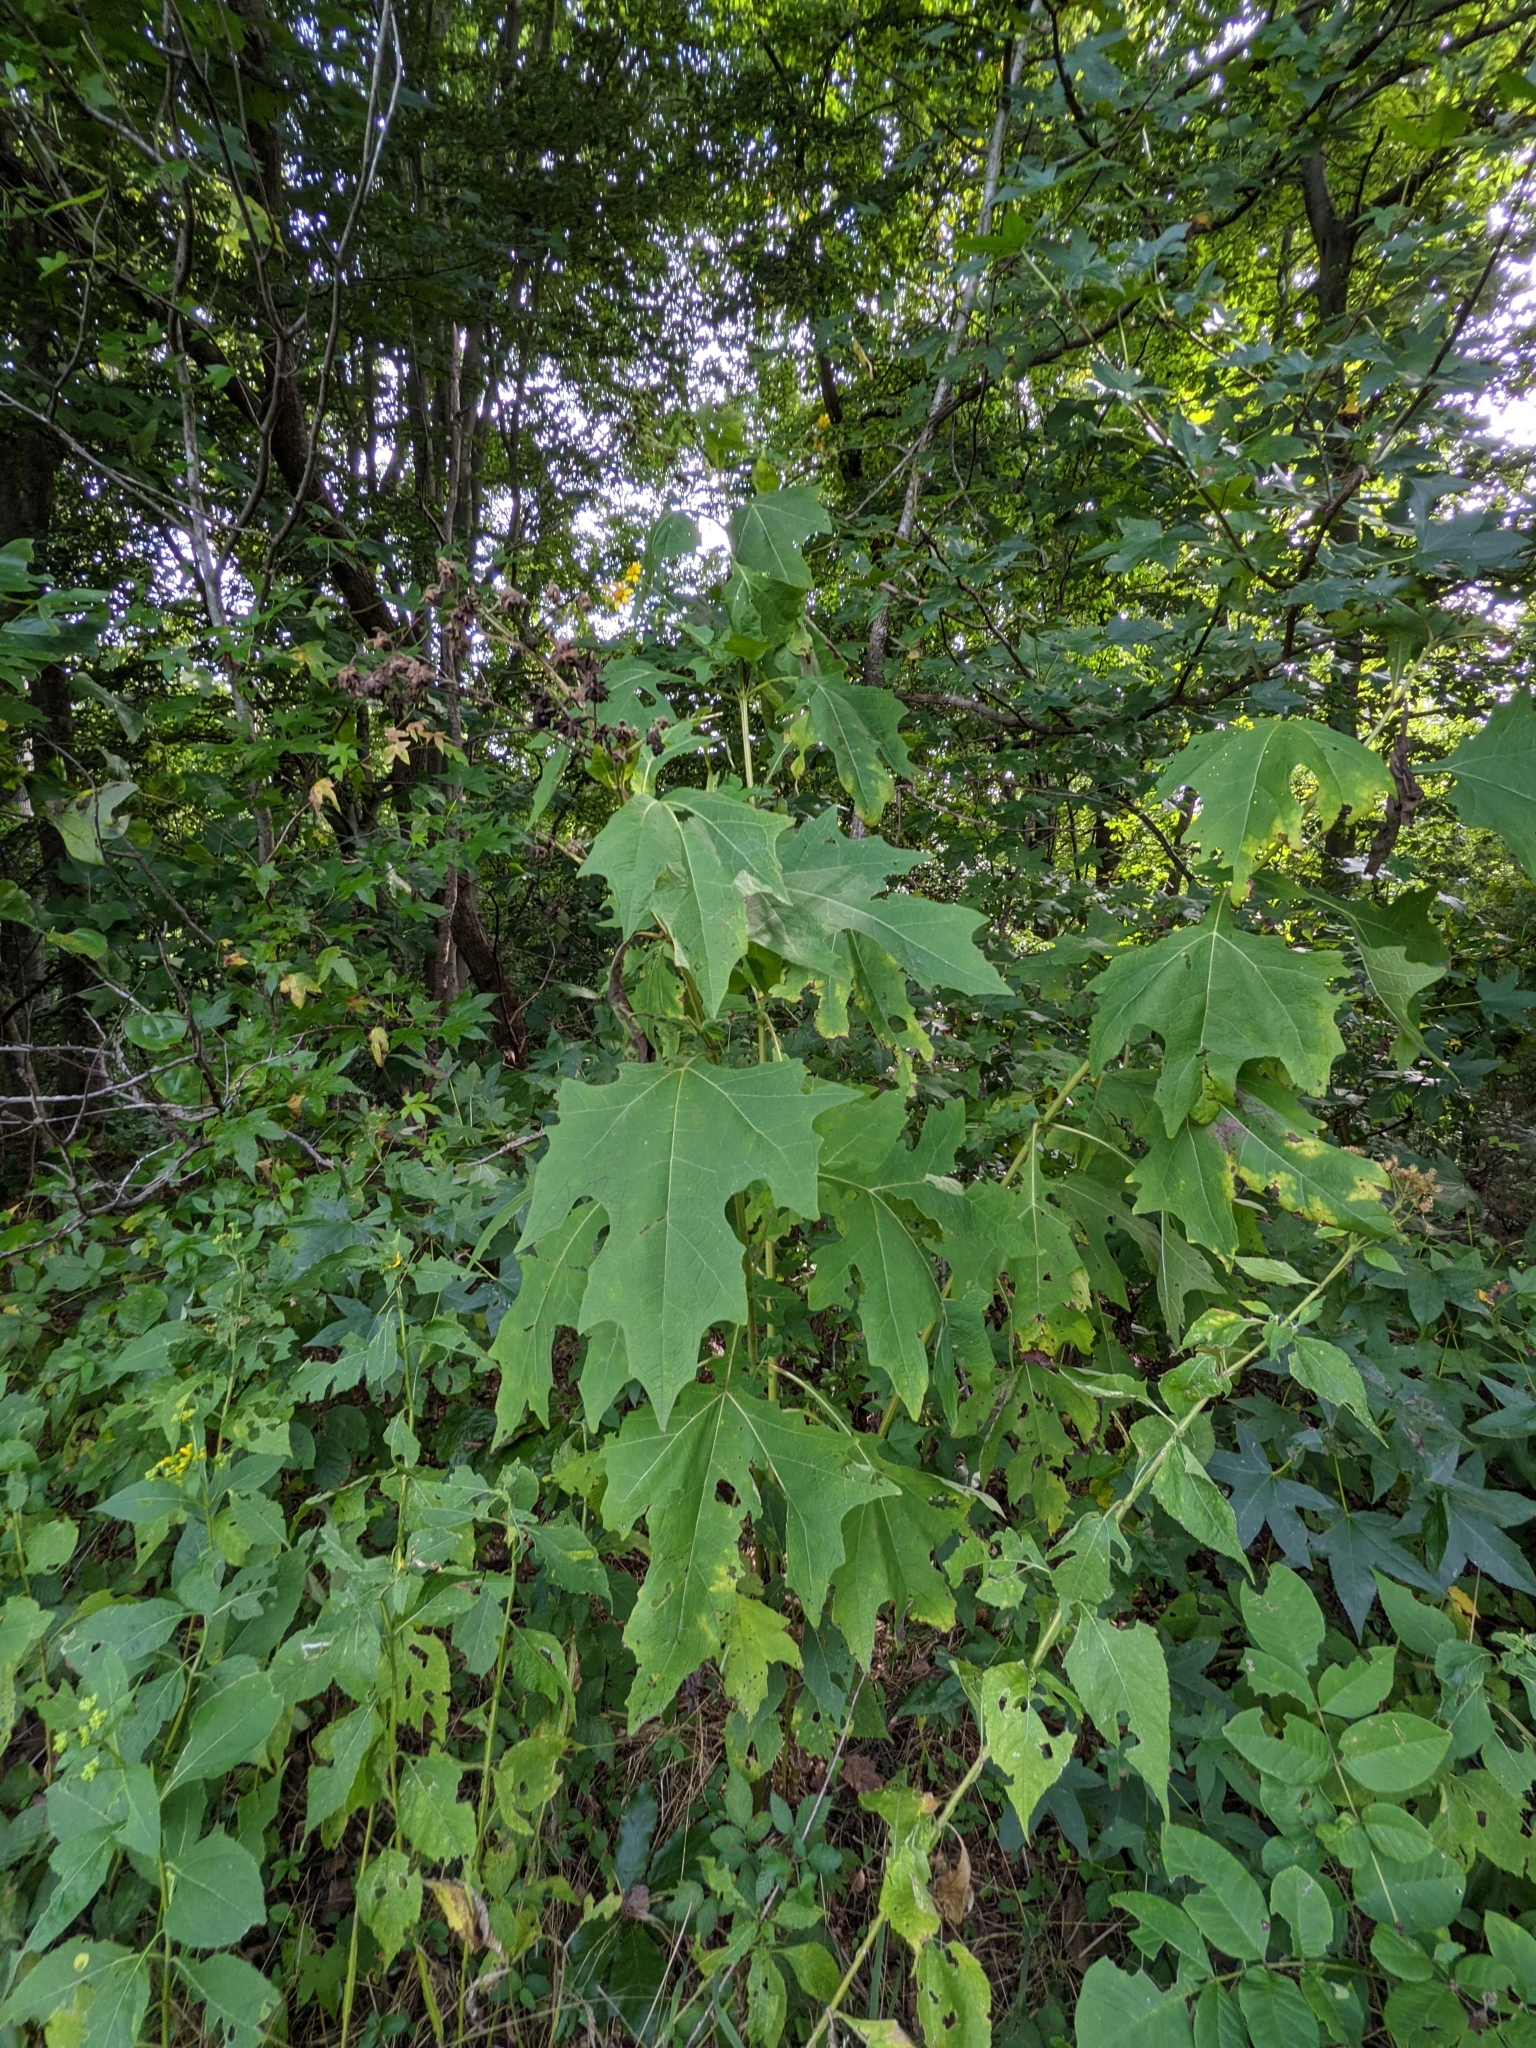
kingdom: Plantae
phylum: Tracheophyta
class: Magnoliopsida
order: Asterales
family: Asteraceae
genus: Smallanthus
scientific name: Smallanthus uvedalia
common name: Bear's-foot
